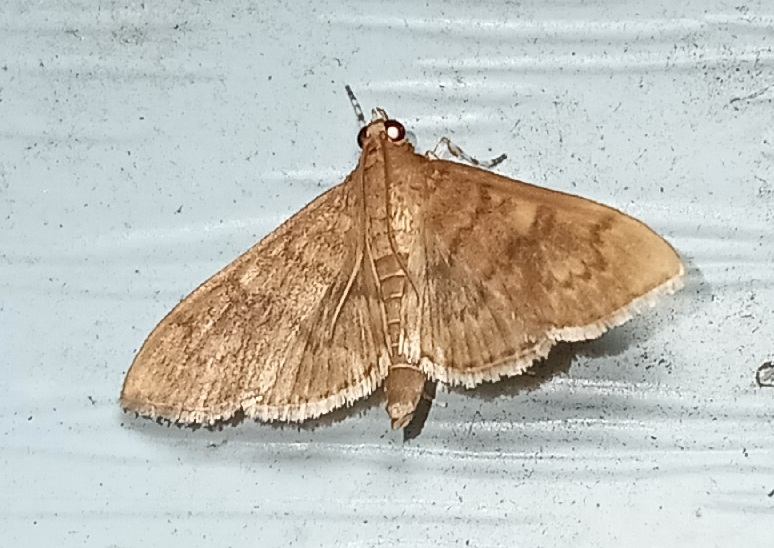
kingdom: Animalia
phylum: Arthropoda
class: Insecta
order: Lepidoptera
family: Crambidae
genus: Syllepte
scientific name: Syllepte obscuralis
